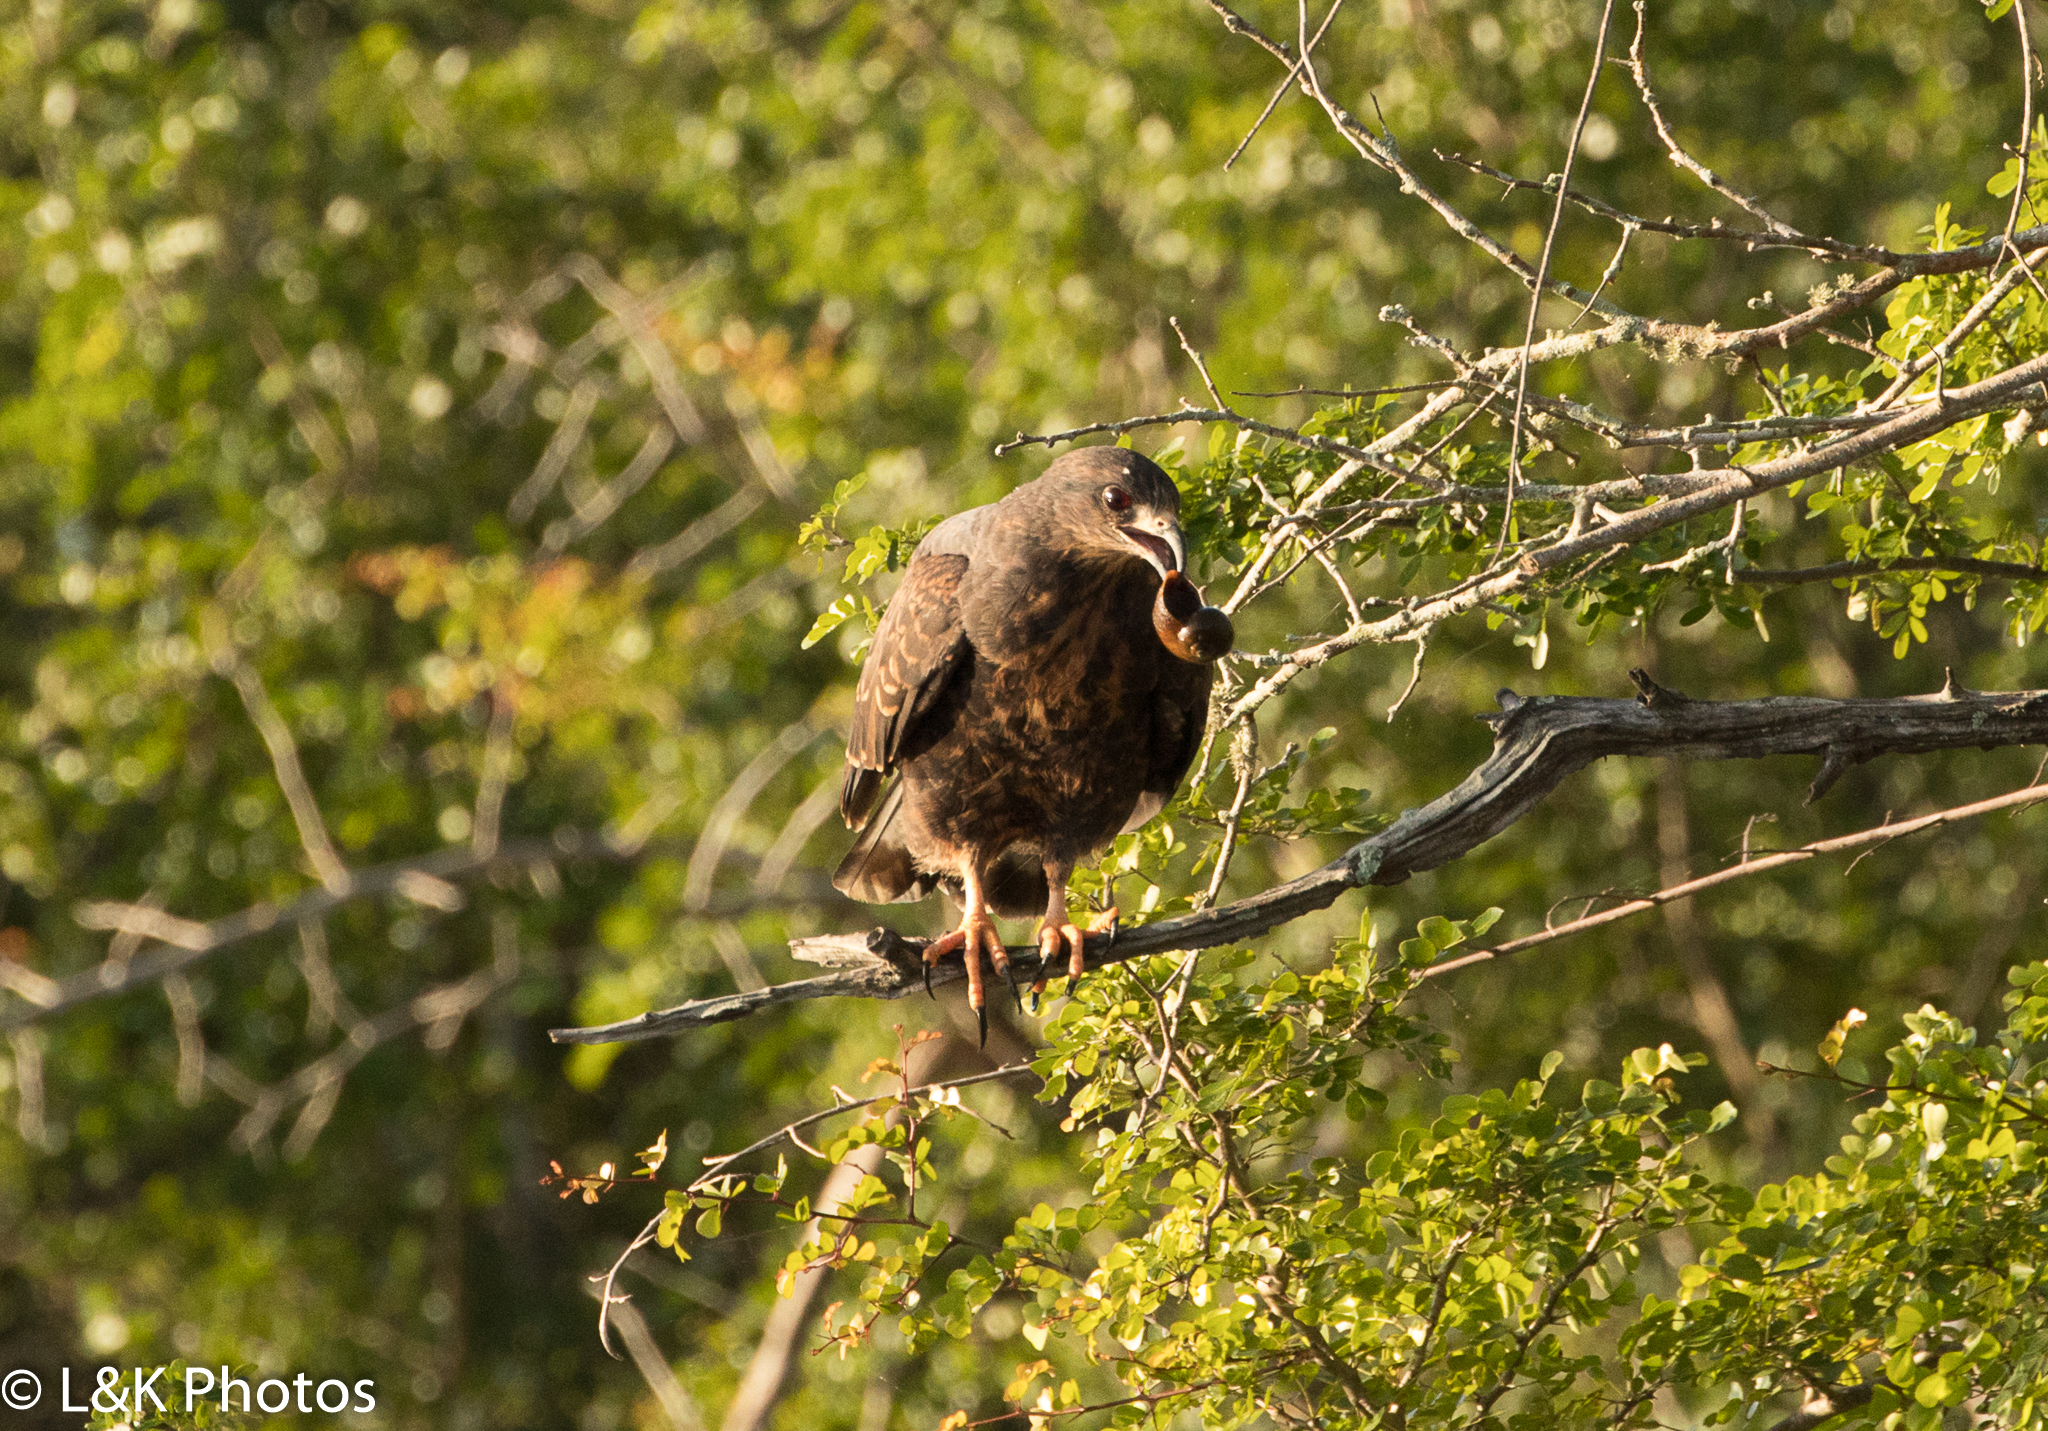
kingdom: Animalia
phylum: Chordata
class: Aves
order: Accipitriformes
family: Accipitridae
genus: Rostrhamus
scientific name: Rostrhamus sociabilis
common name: Snail kite
